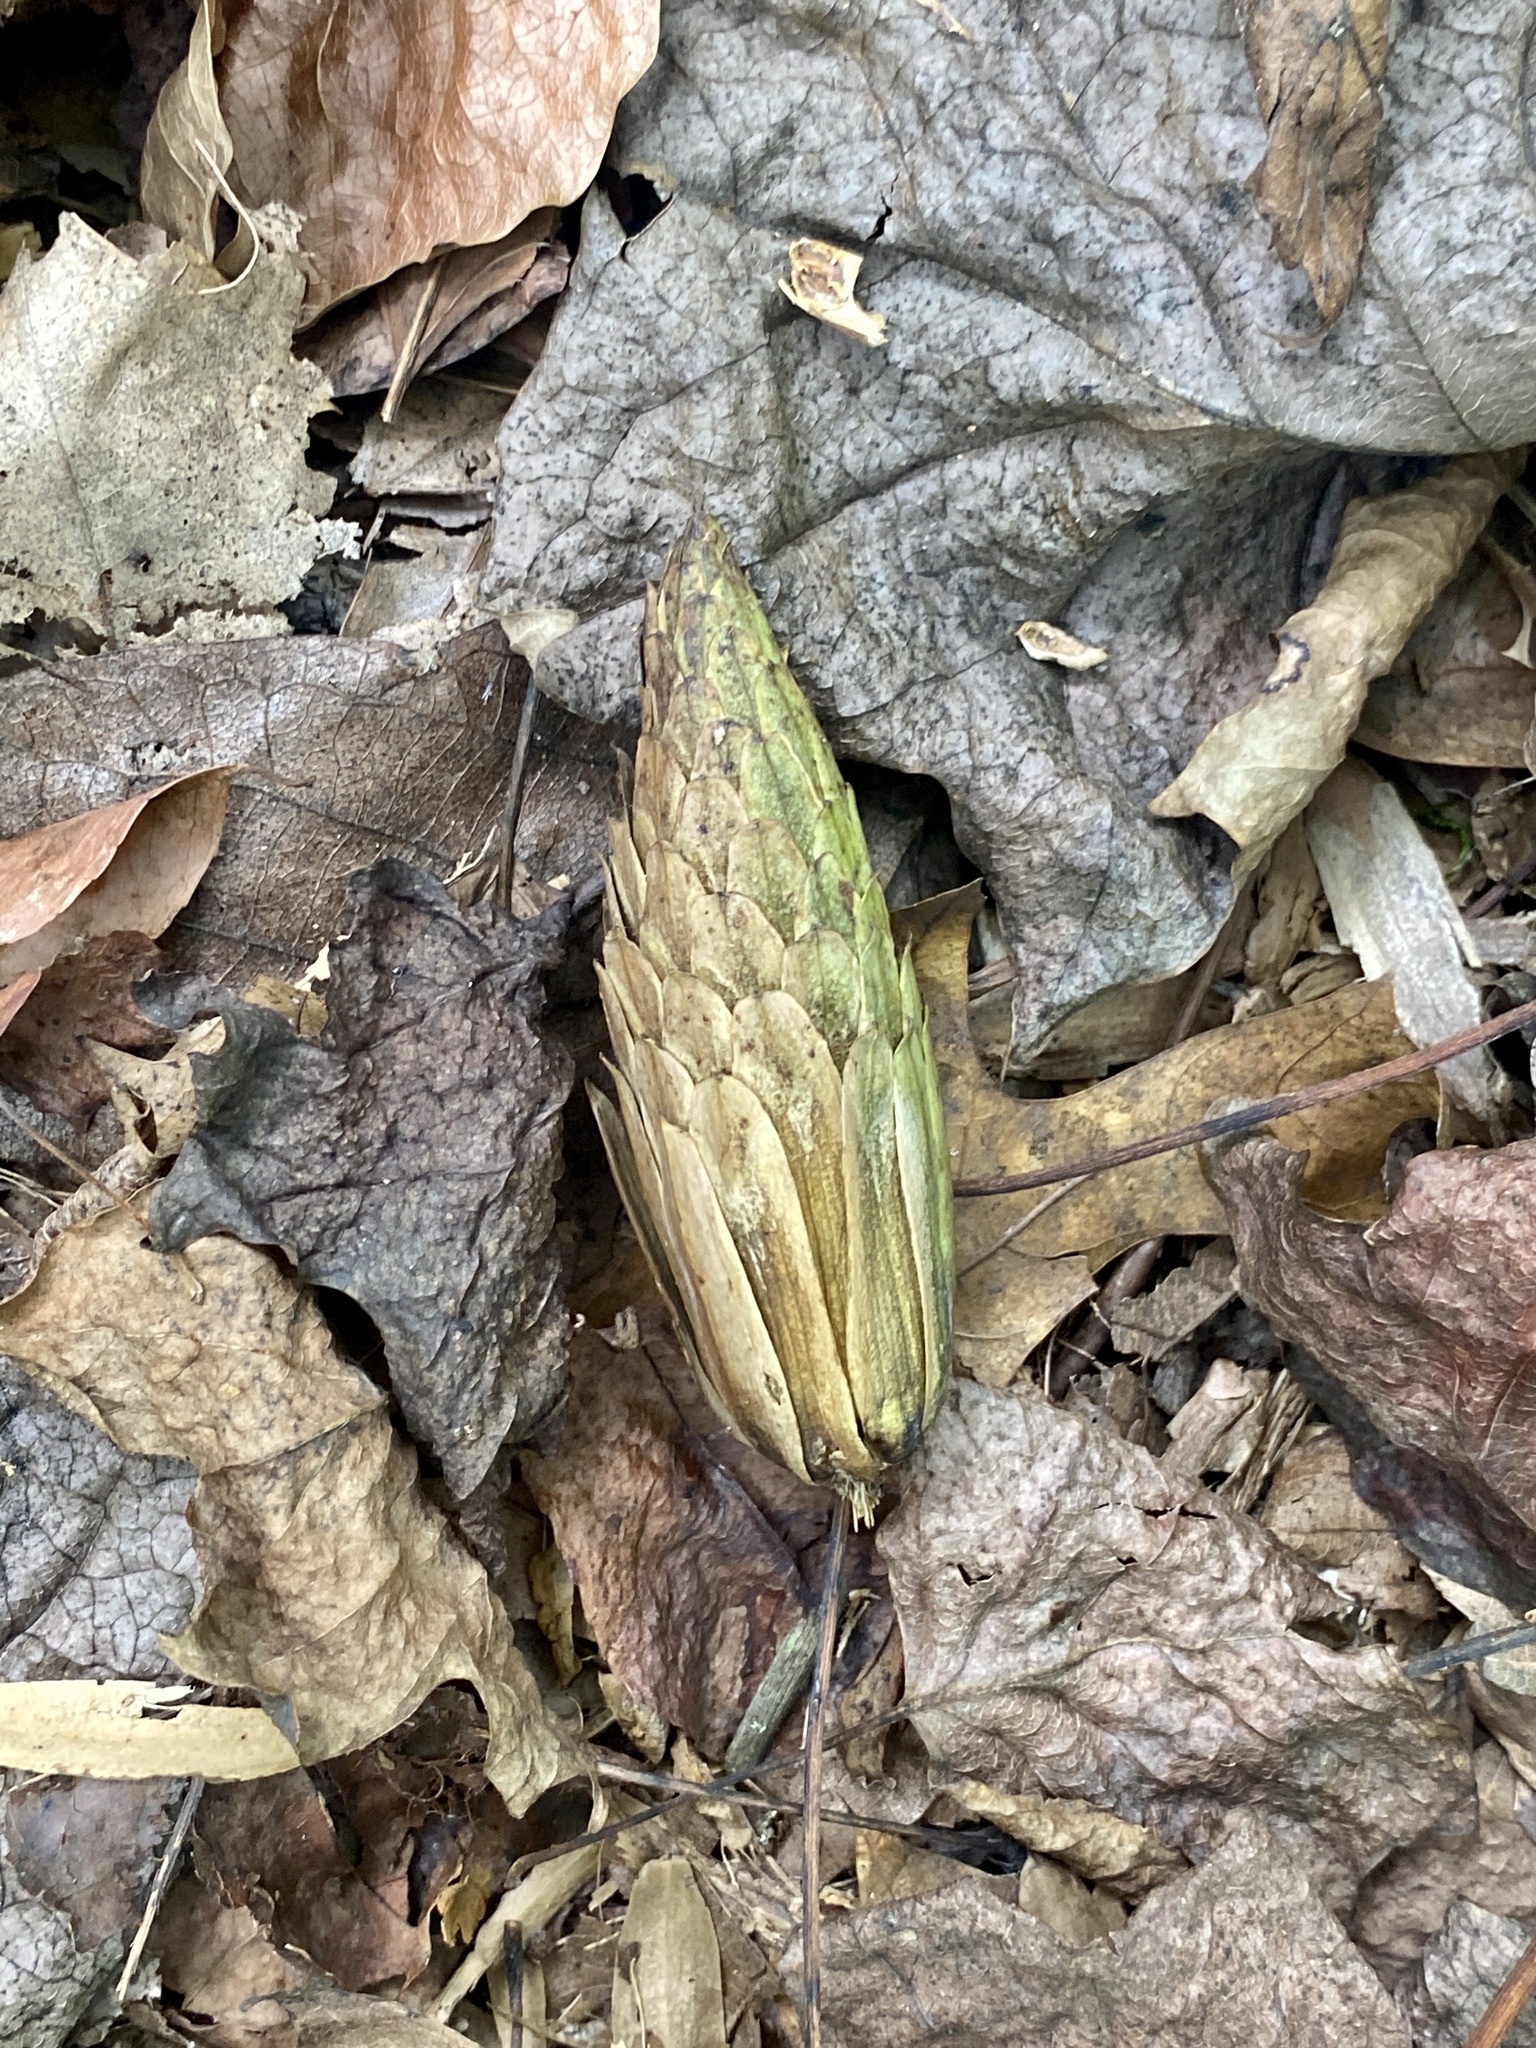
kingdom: Plantae
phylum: Tracheophyta
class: Magnoliopsida
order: Magnoliales
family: Magnoliaceae
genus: Liriodendron
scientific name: Liriodendron tulipifera
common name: Tulip tree
